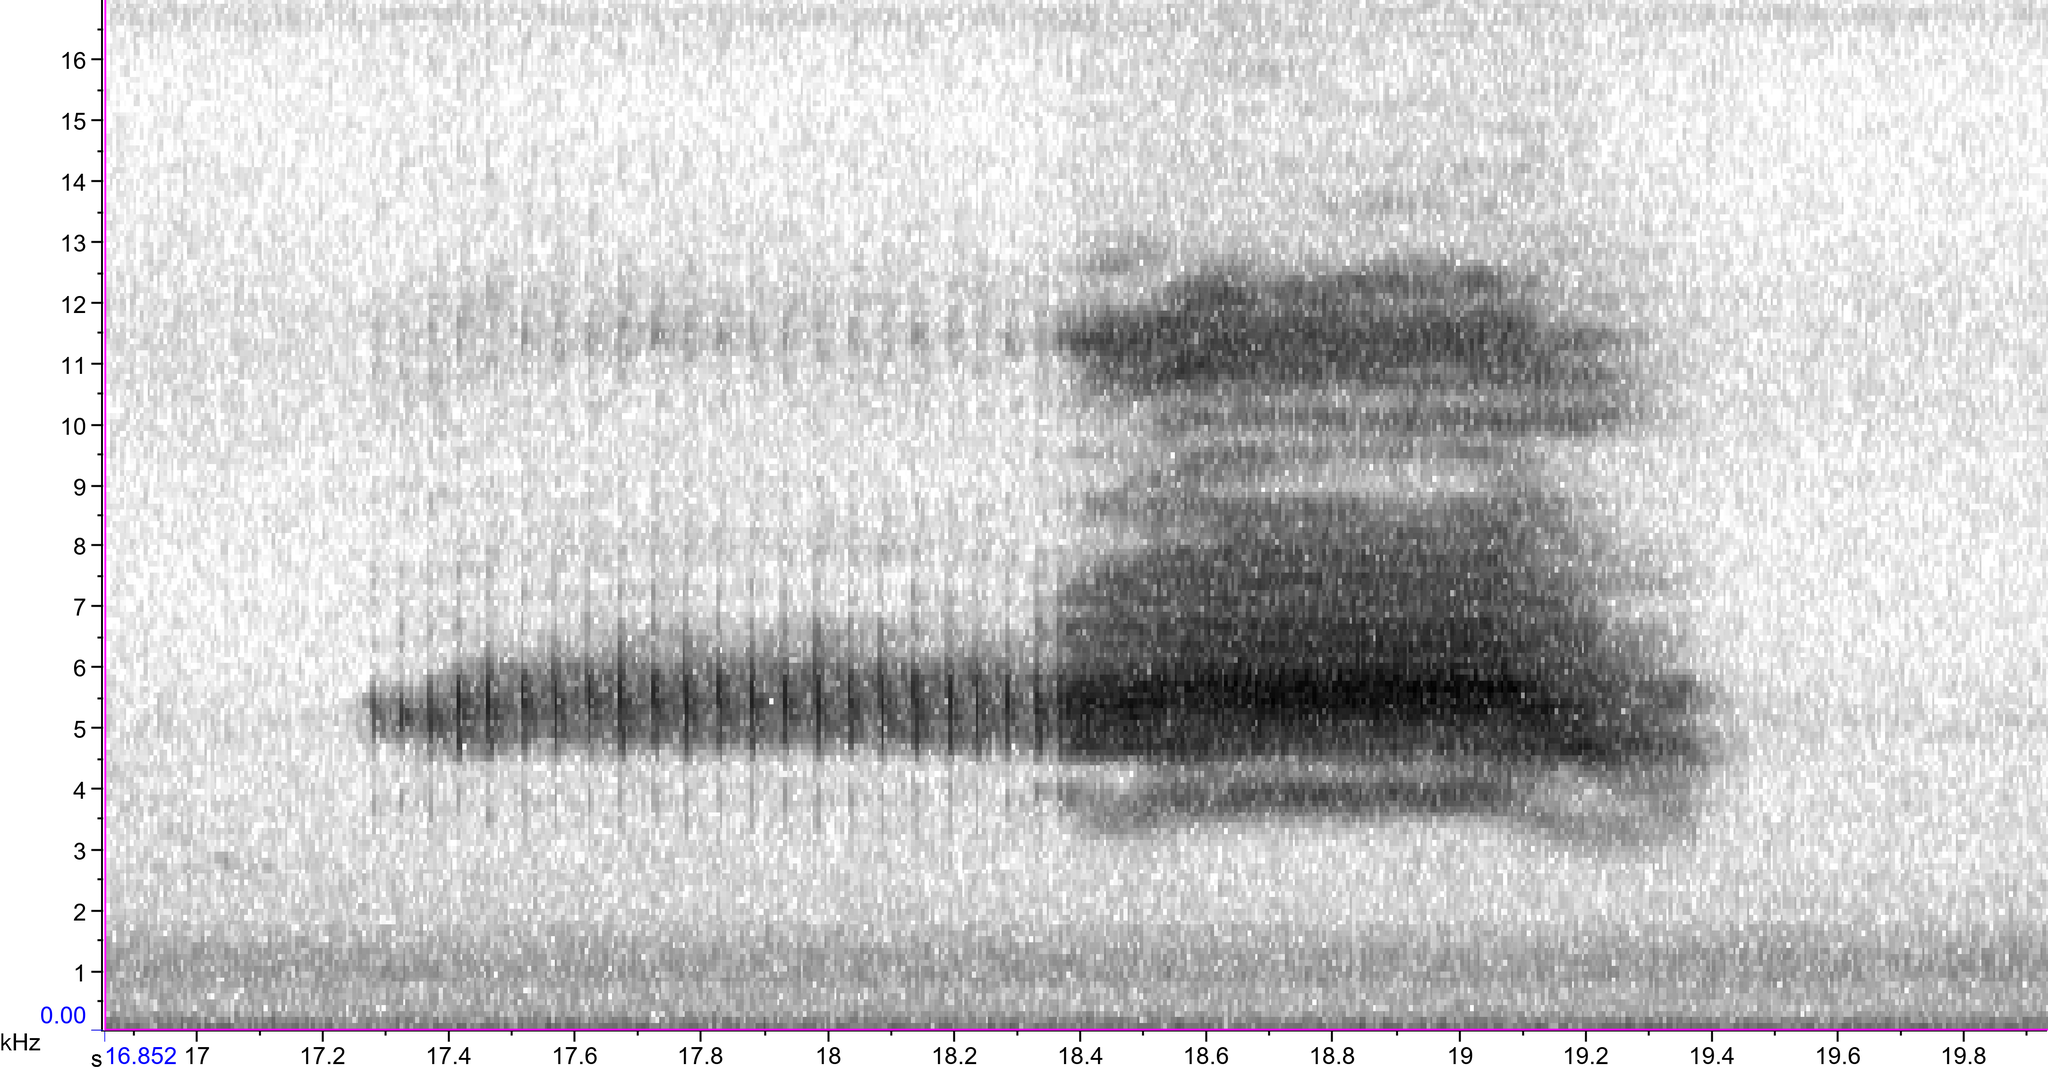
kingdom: Animalia
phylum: Arthropoda
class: Insecta
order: Hemiptera
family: Cicadidae
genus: Magicicada
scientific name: Magicicada cassini
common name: Cassin's 17-year cicada
